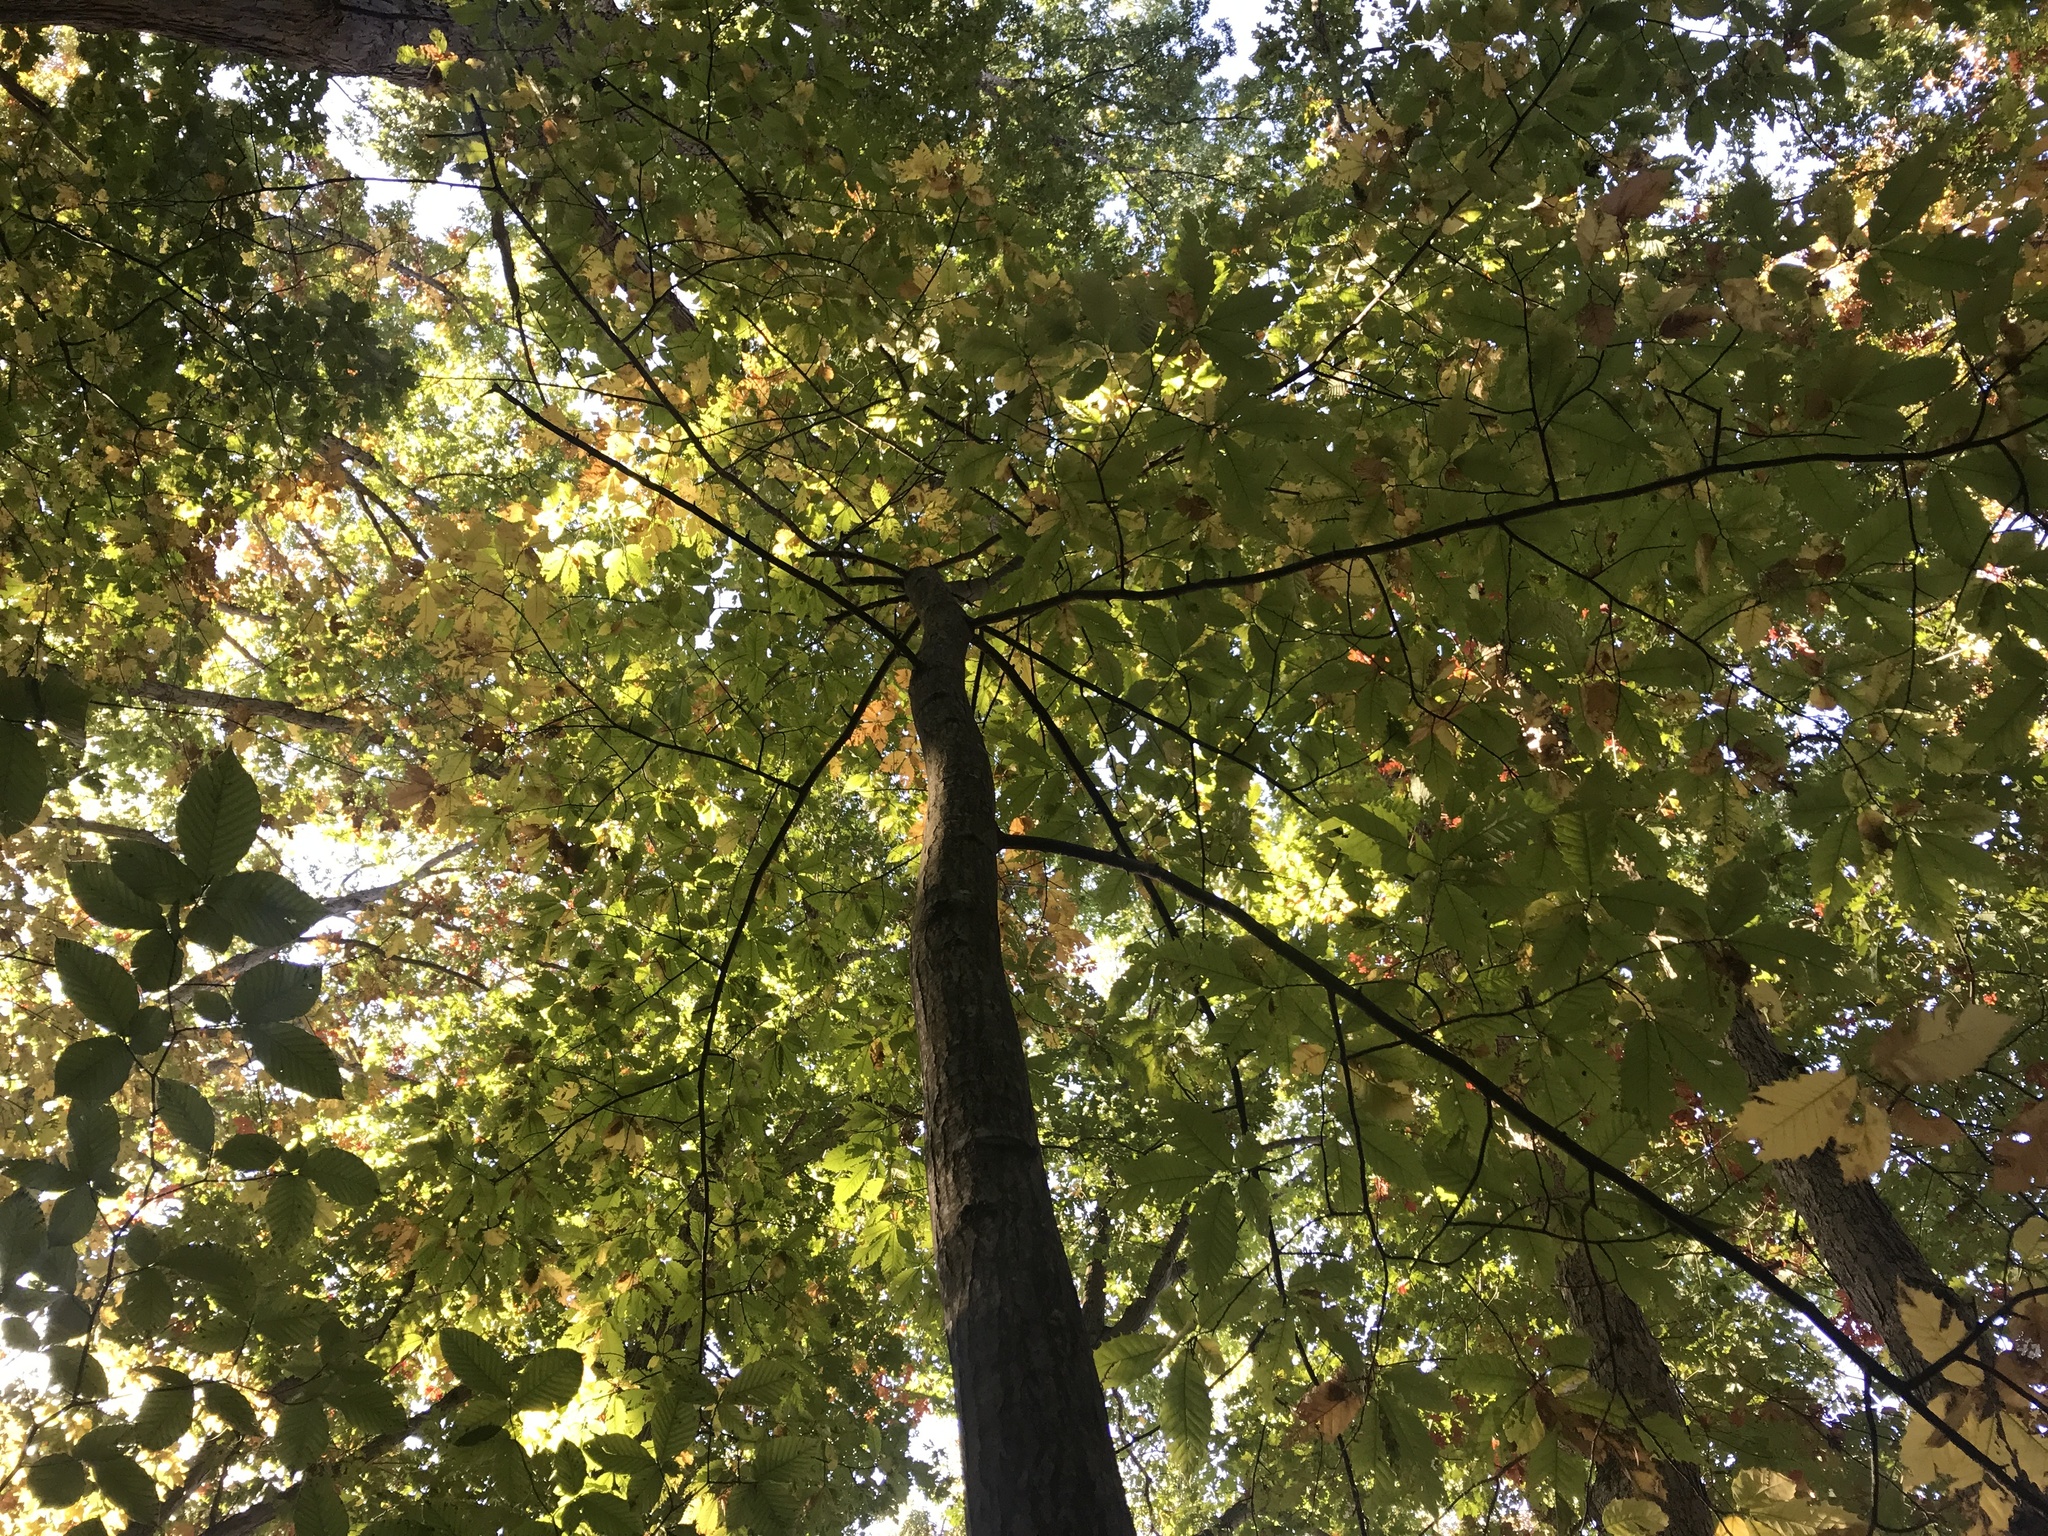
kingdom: Plantae
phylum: Tracheophyta
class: Magnoliopsida
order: Fagales
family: Fagaceae
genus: Castanea
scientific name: Castanea dentata
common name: American chestnut
